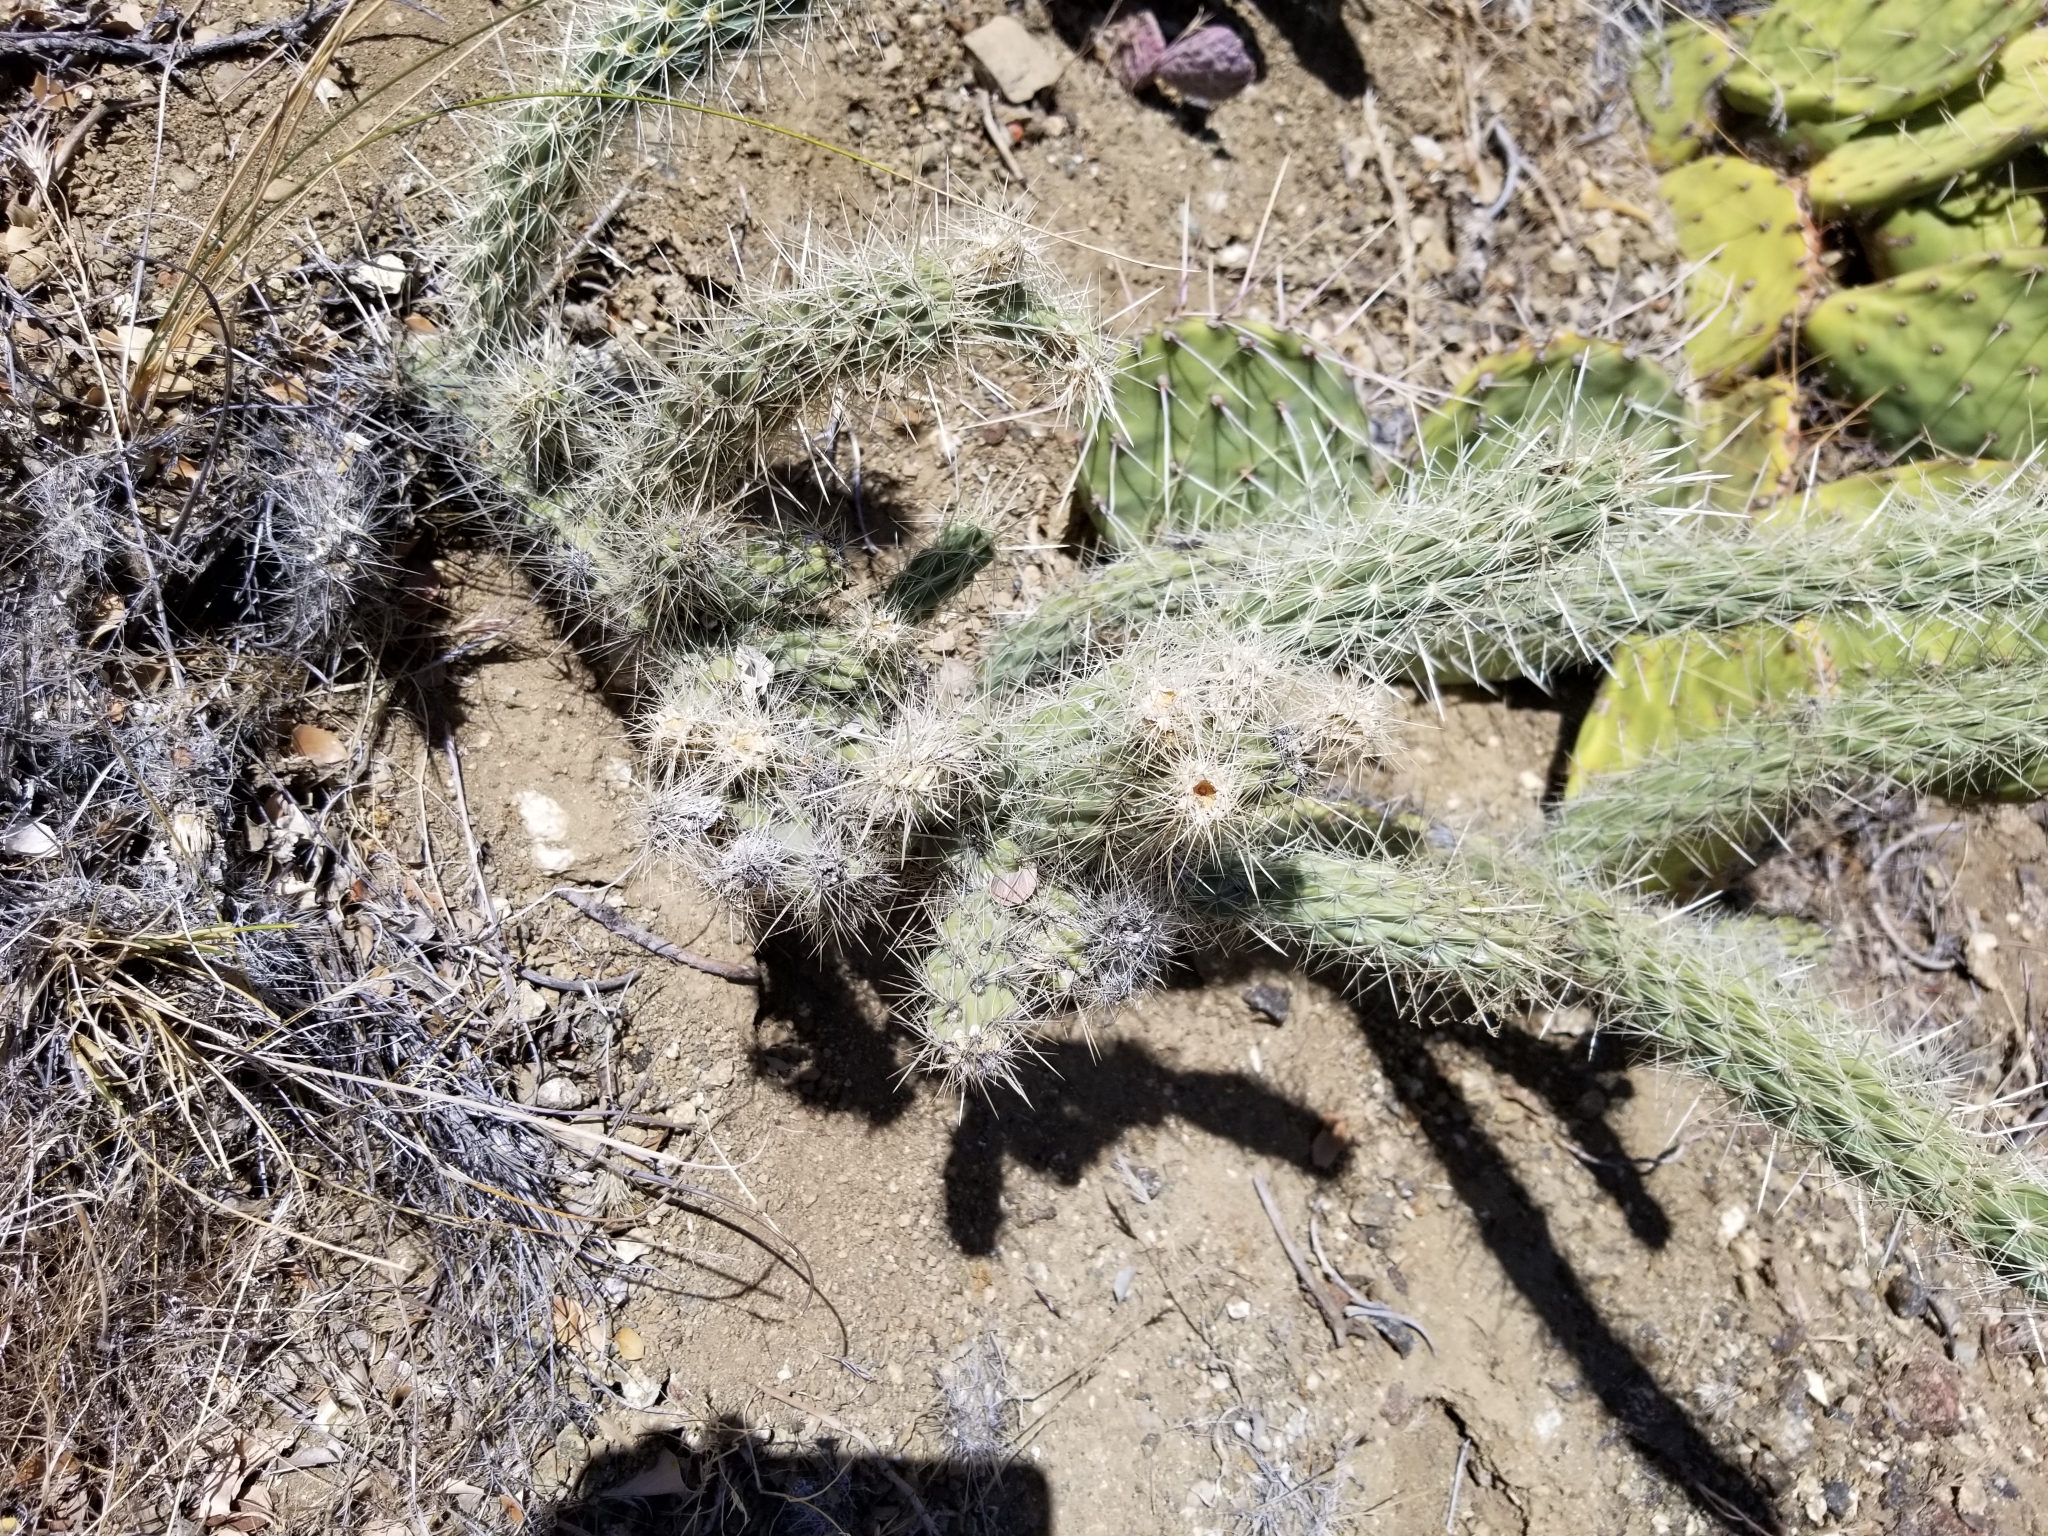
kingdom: Plantae
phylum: Tracheophyta
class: Magnoliopsida
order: Caryophyllales
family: Cactaceae
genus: Cylindropuntia
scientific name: Cylindropuntia ganderi
